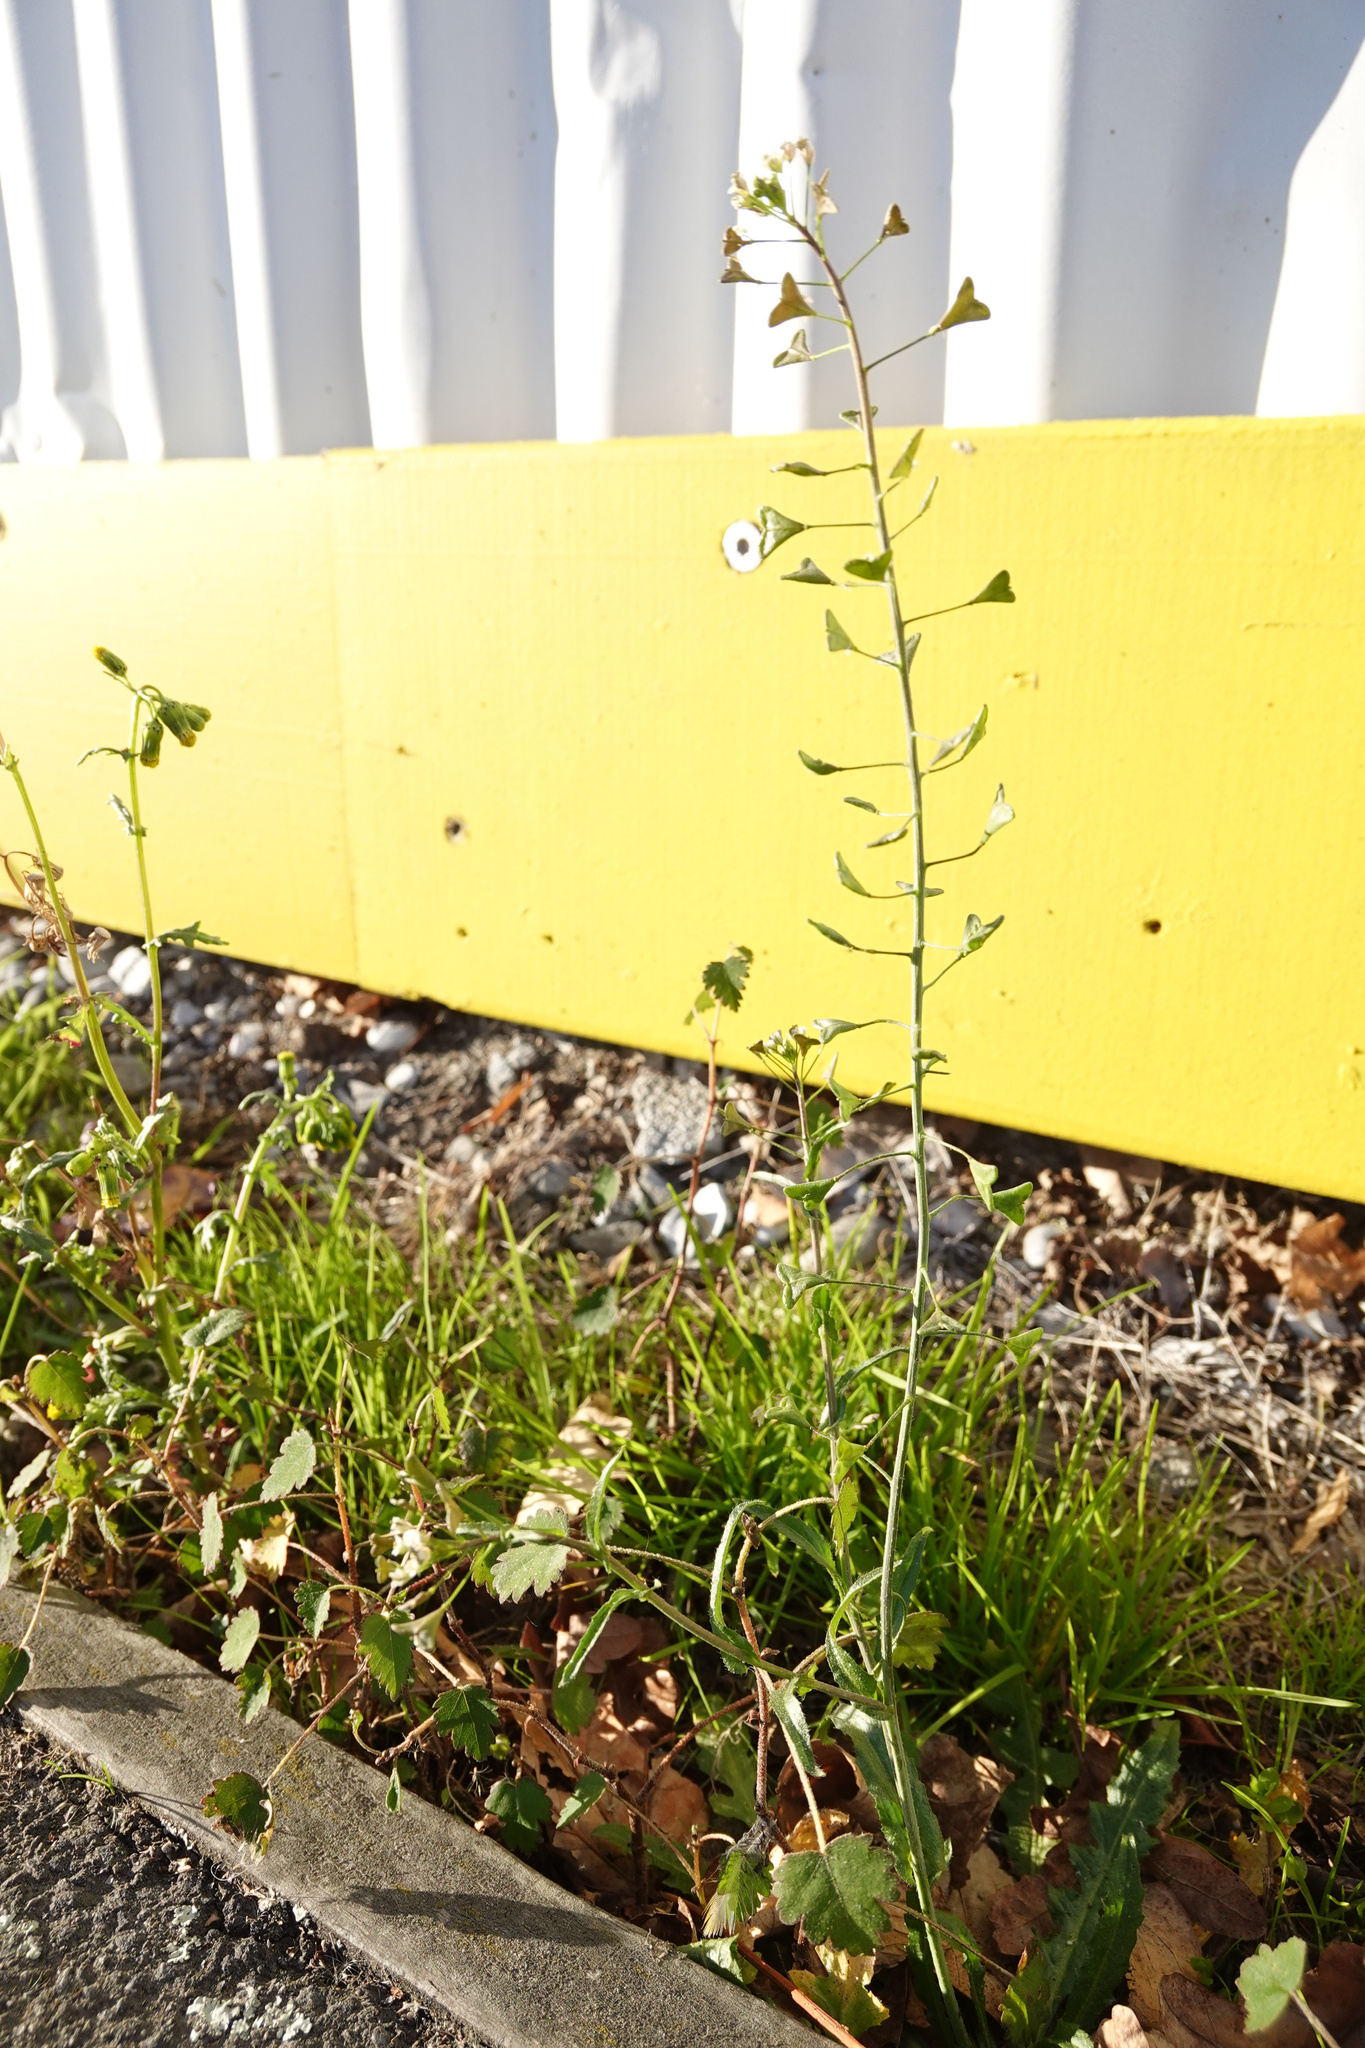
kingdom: Plantae
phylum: Tracheophyta
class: Magnoliopsida
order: Brassicales
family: Brassicaceae
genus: Capsella
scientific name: Capsella bursa-pastoris
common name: Shepherd's purse
